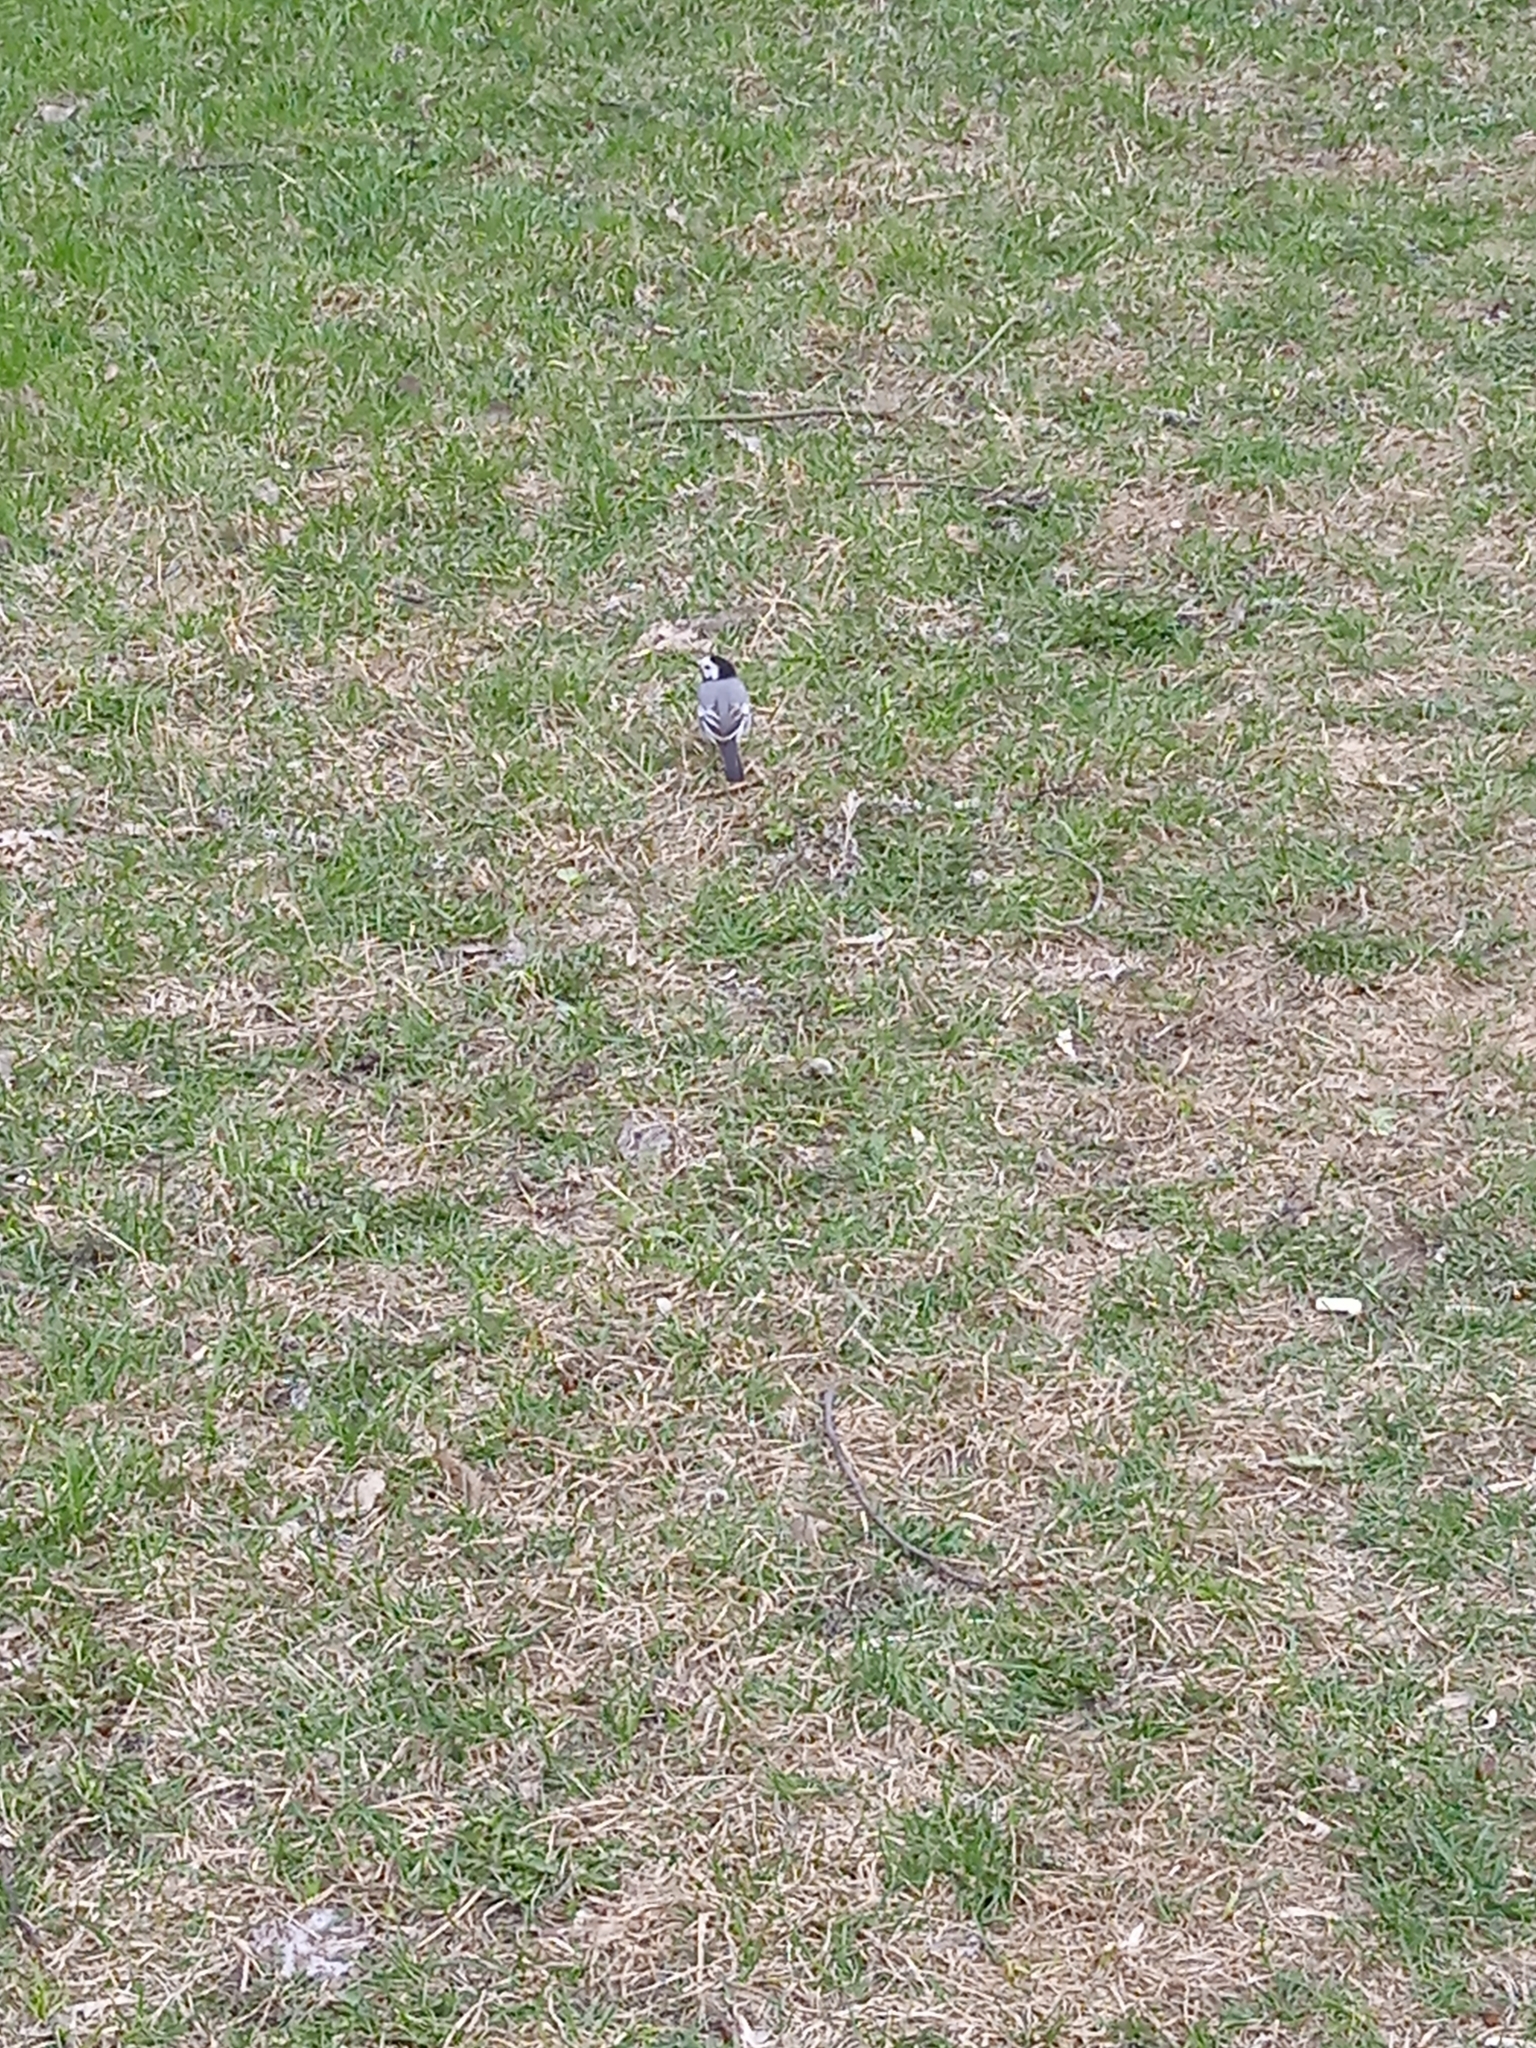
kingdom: Animalia
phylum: Chordata
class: Aves
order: Passeriformes
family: Motacillidae
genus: Motacilla
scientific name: Motacilla alba
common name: White wagtail
